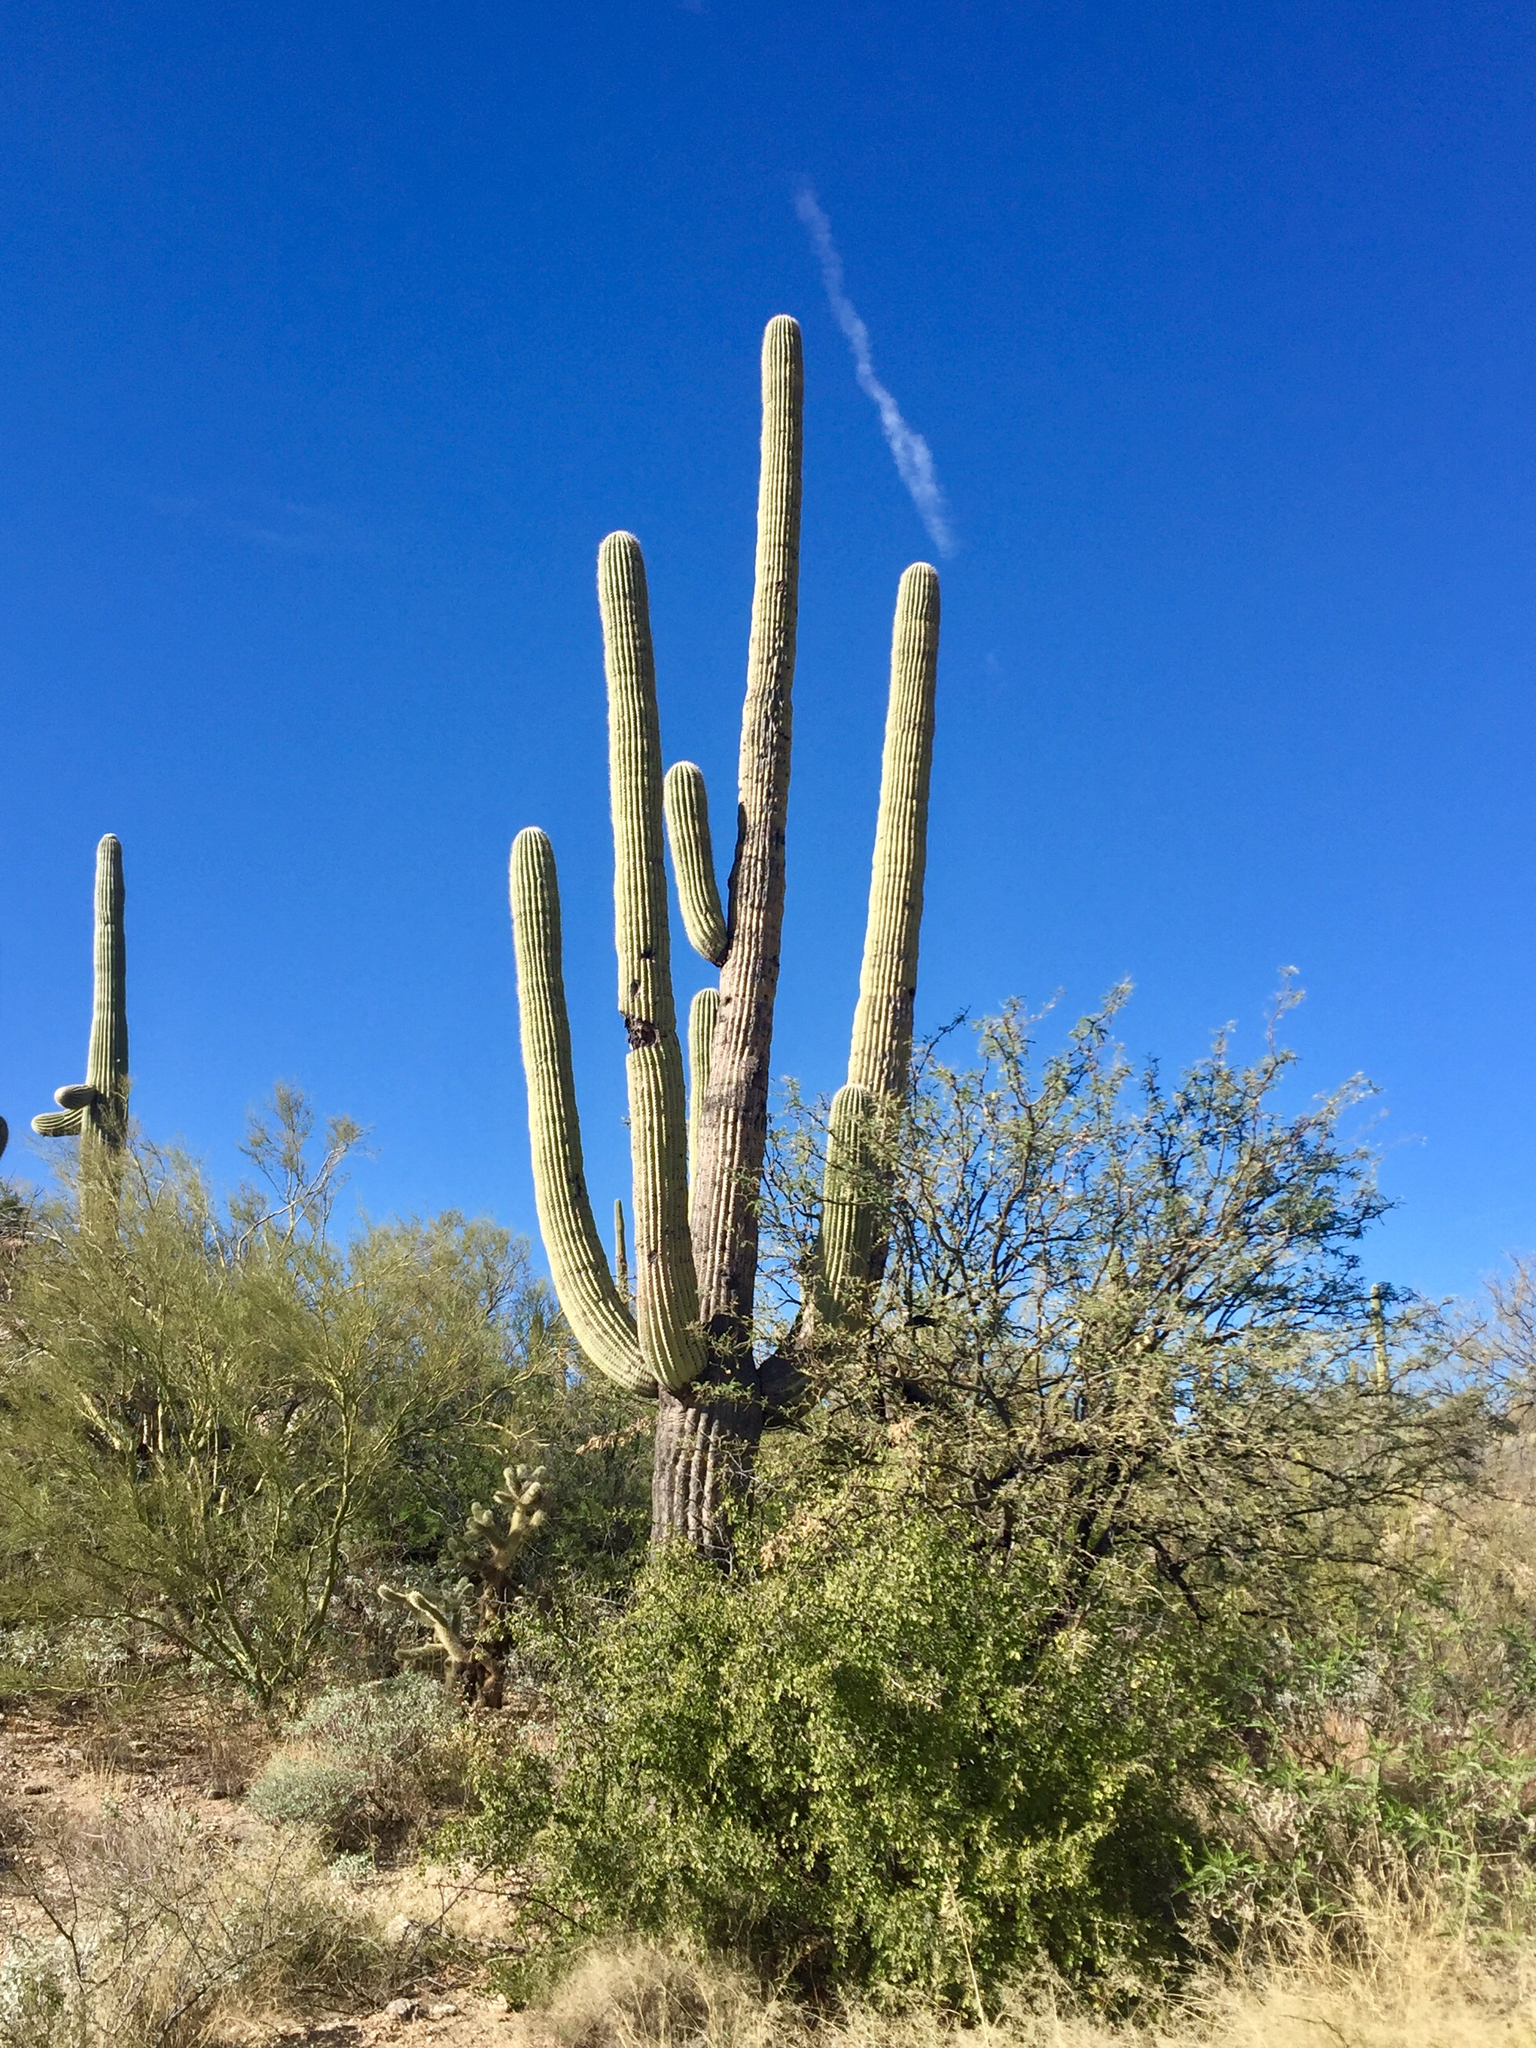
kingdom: Plantae
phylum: Tracheophyta
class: Magnoliopsida
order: Caryophyllales
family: Cactaceae
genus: Carnegiea
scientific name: Carnegiea gigantea
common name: Saguaro
